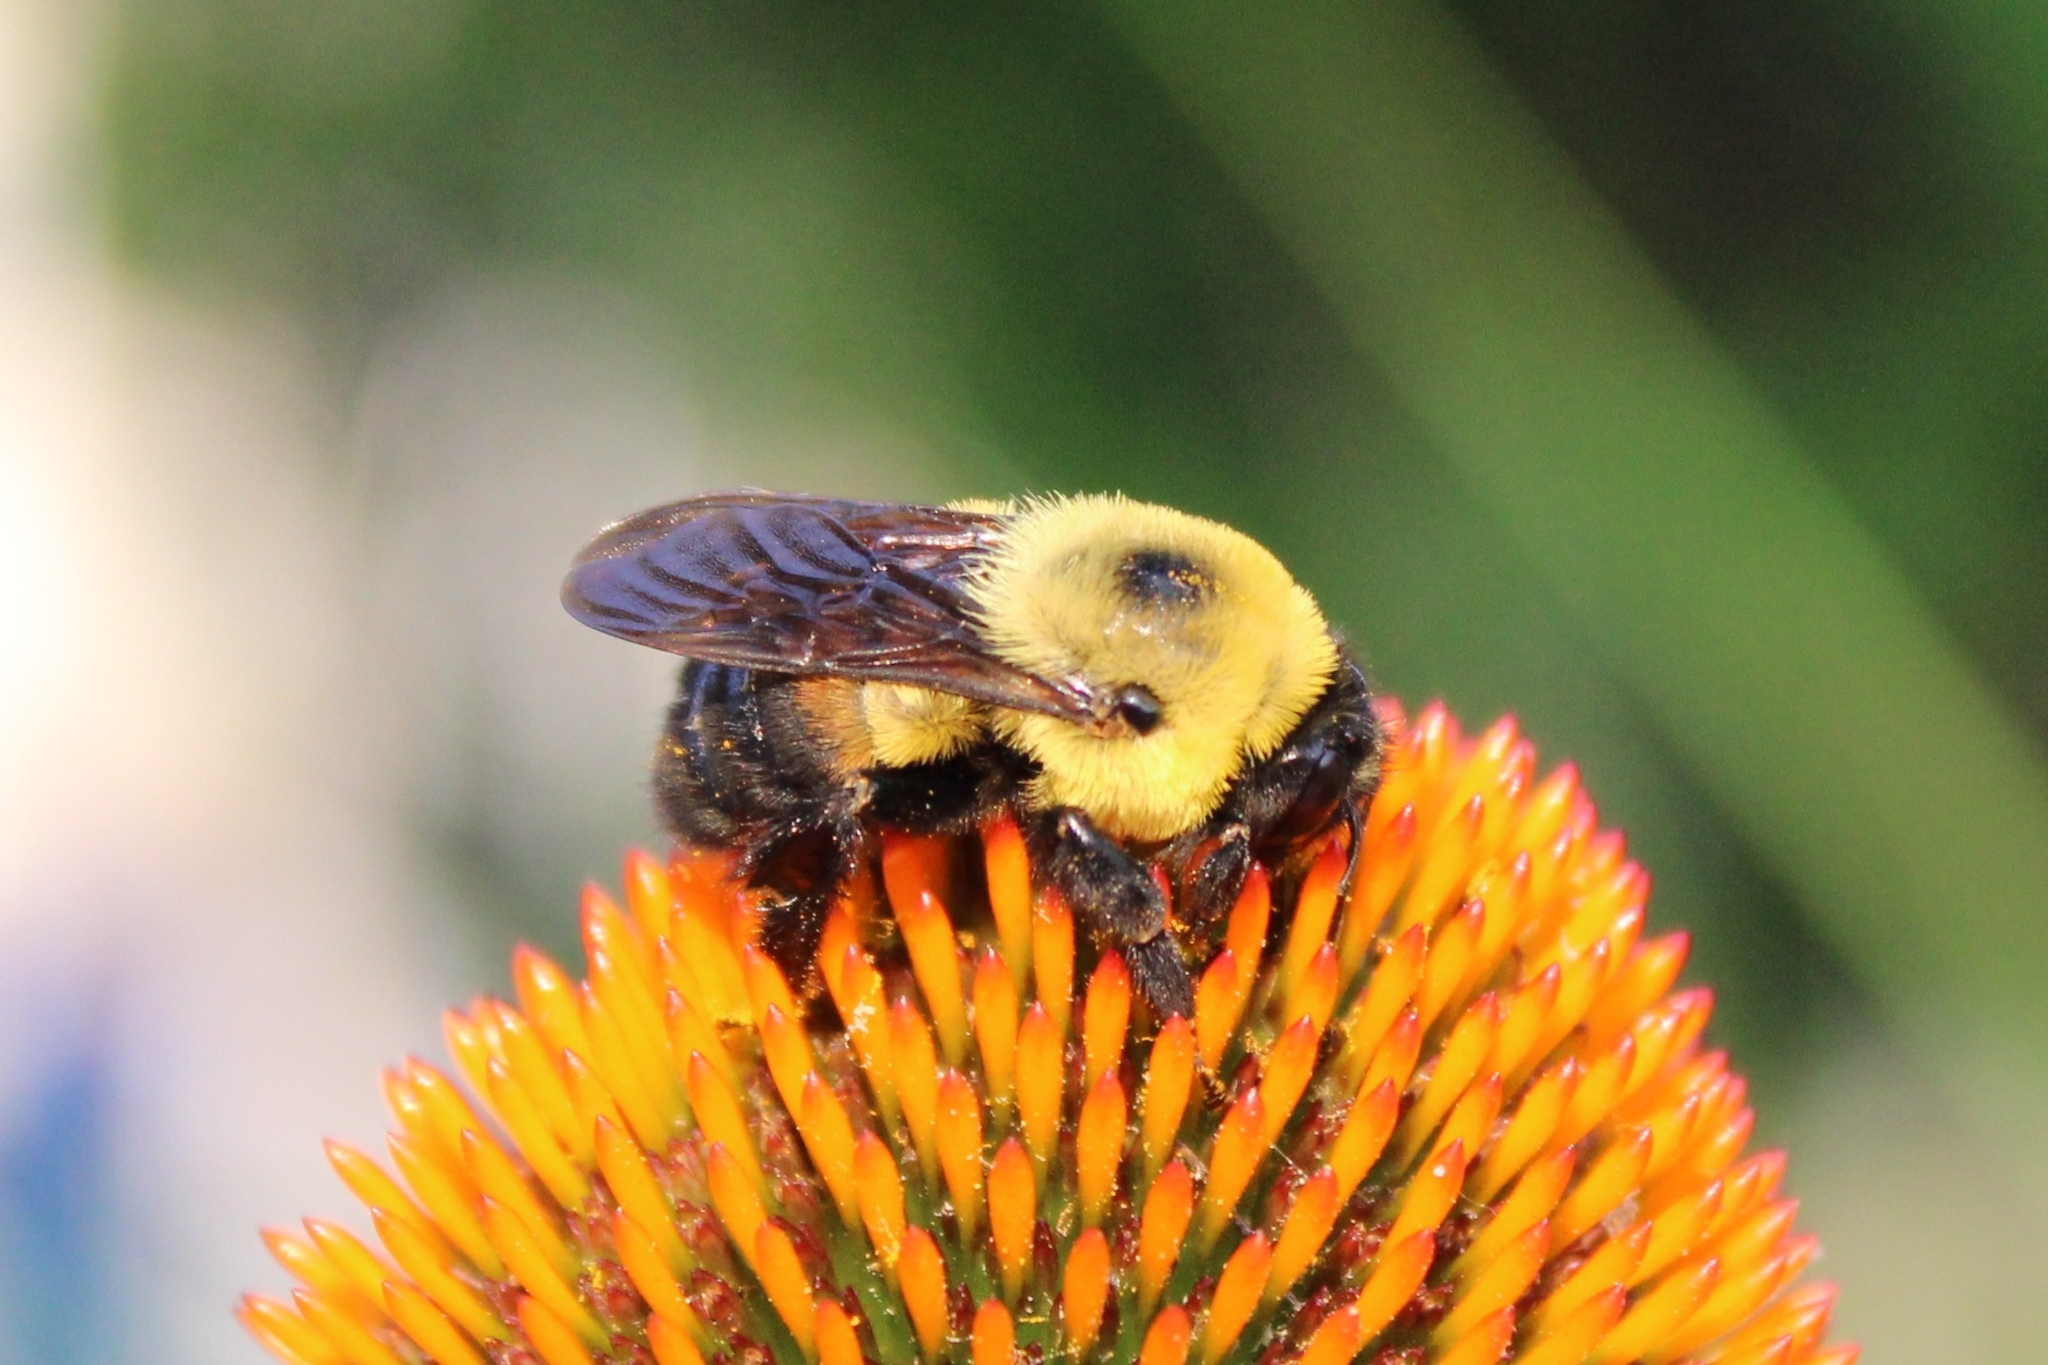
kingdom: Animalia
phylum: Arthropoda
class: Insecta
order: Hymenoptera
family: Apidae
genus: Bombus
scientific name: Bombus griseocollis
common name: Brown-belted bumble bee
